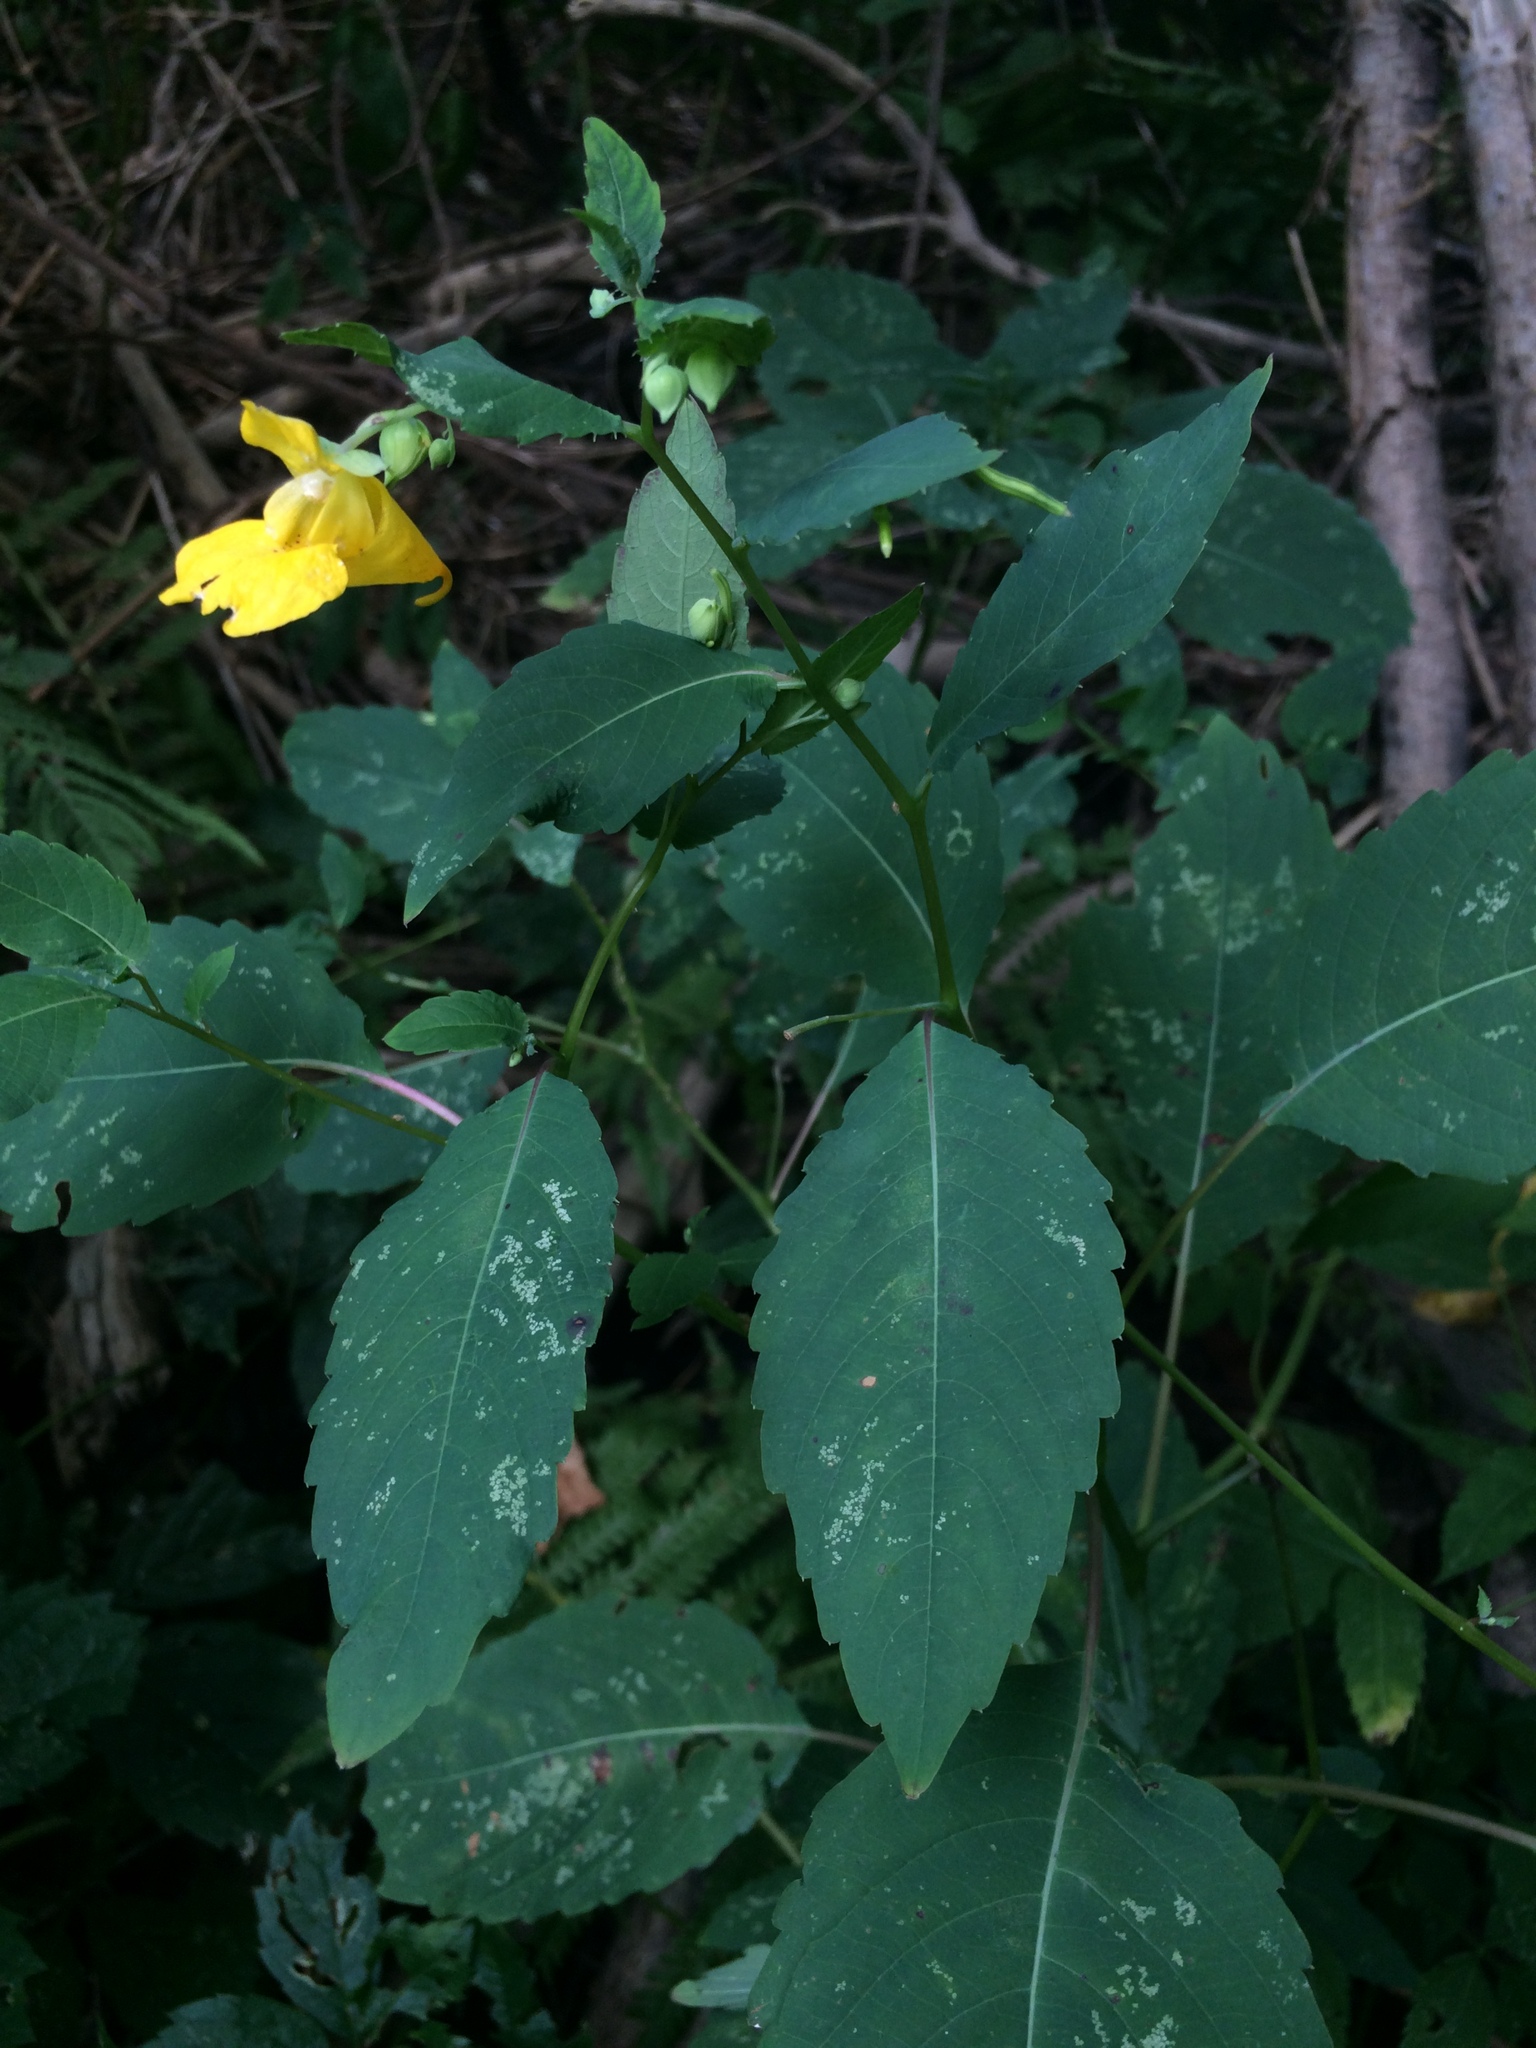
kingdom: Plantae
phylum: Tracheophyta
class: Magnoliopsida
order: Ericales
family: Balsaminaceae
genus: Impatiens
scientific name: Impatiens pallida
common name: Pale snapweed
